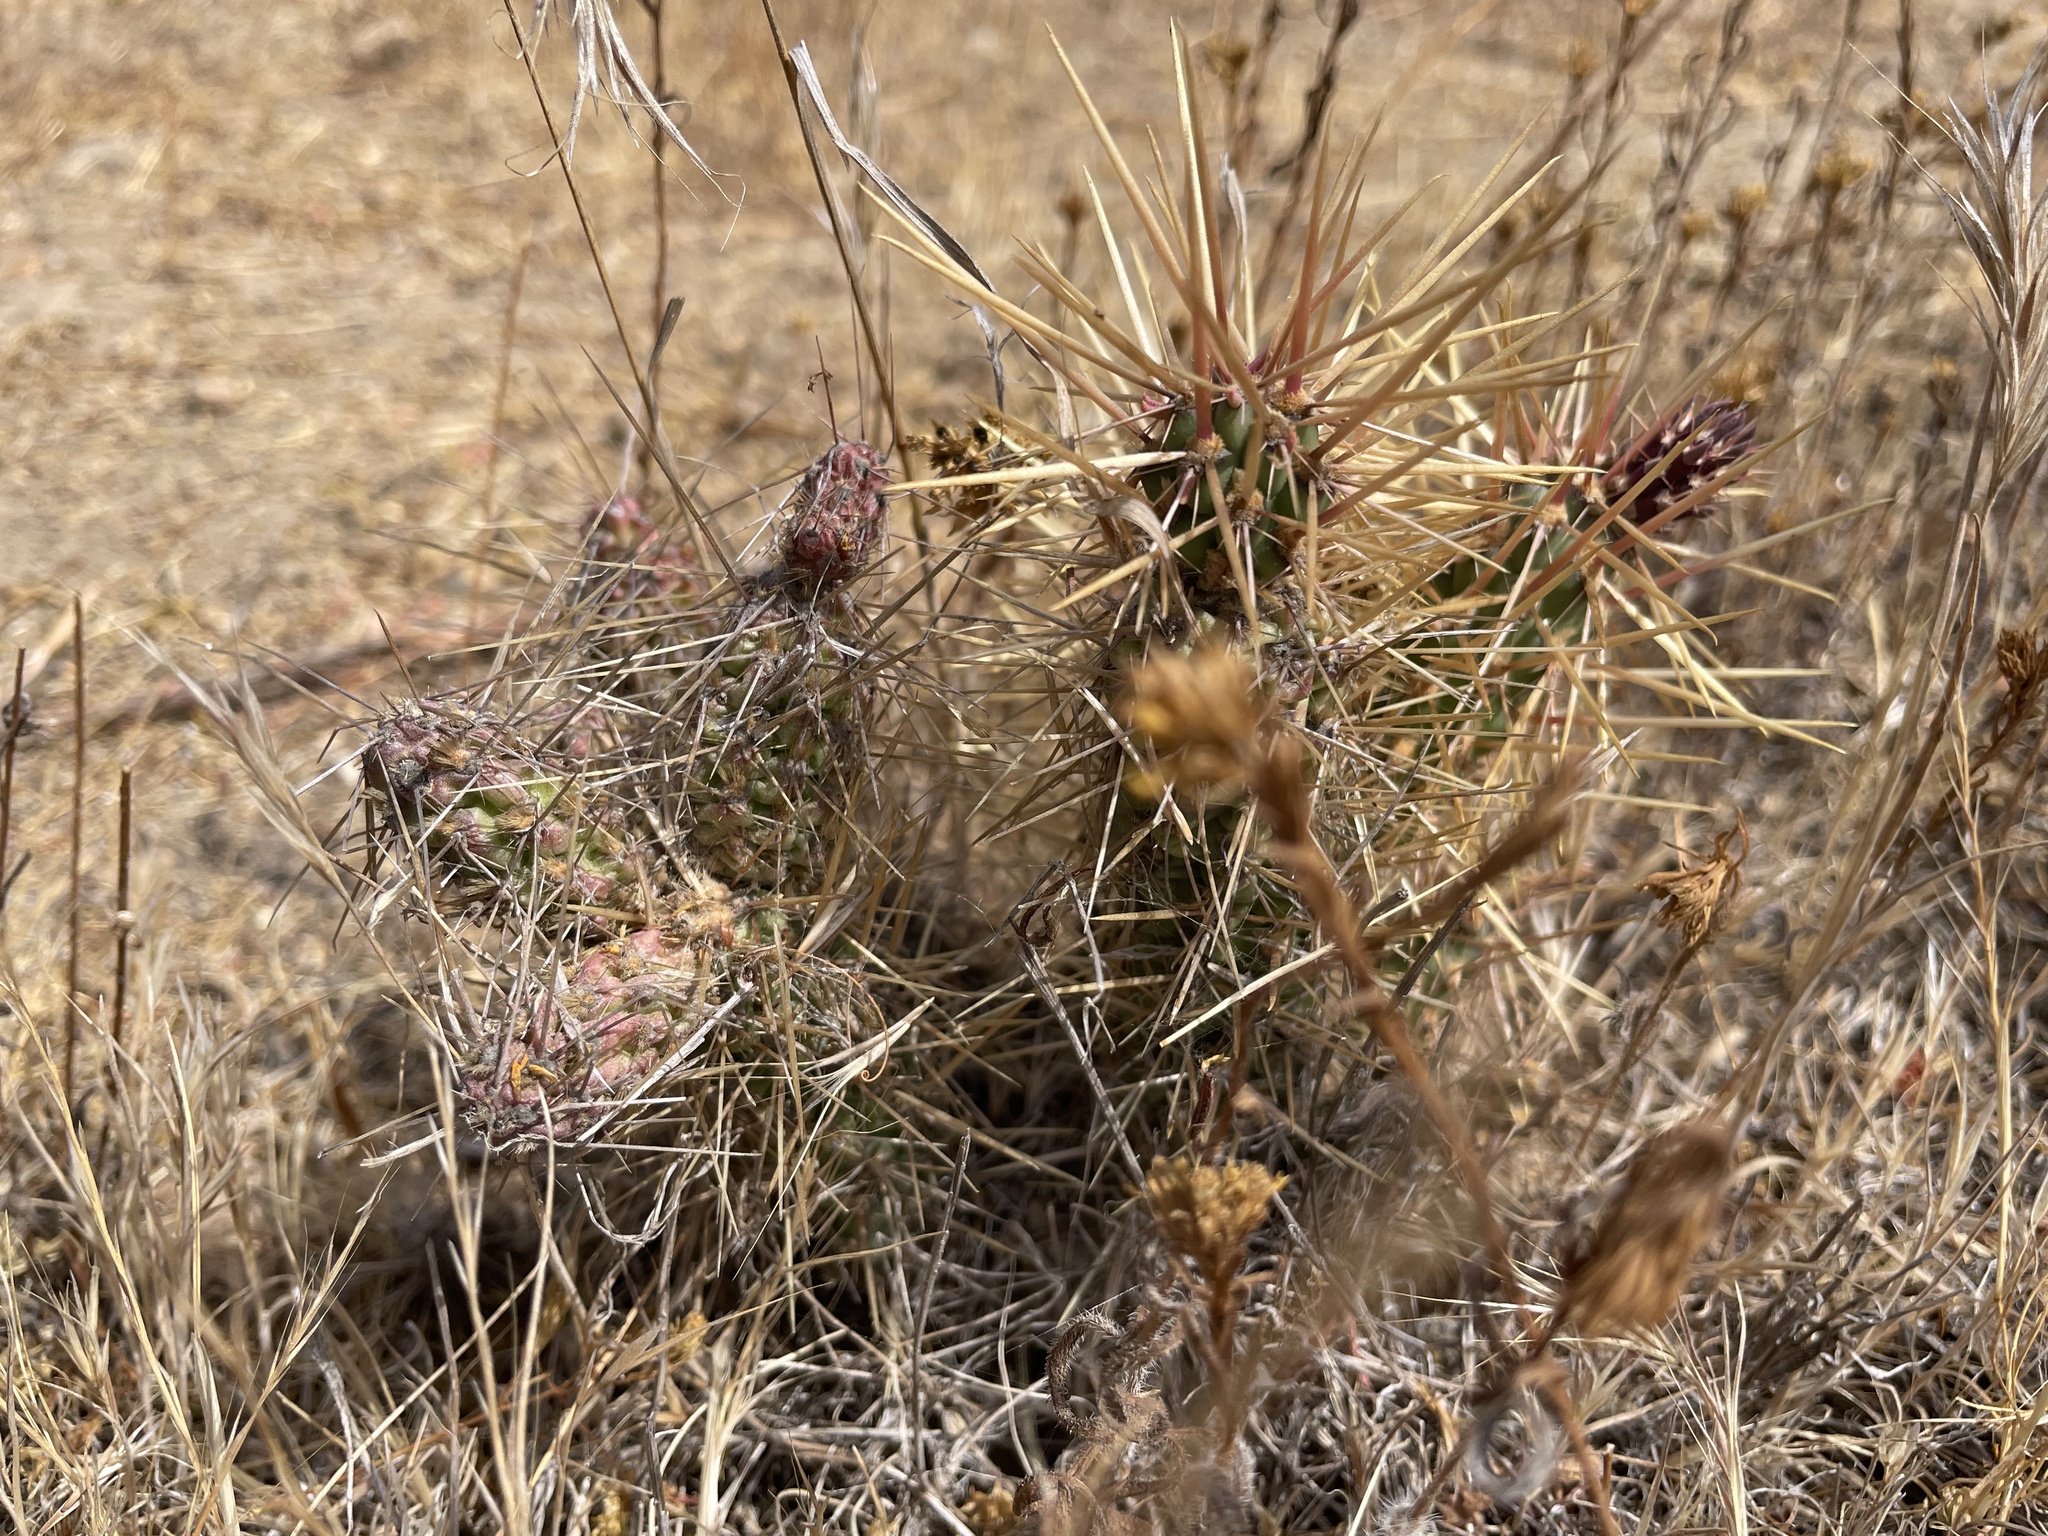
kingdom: Plantae
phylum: Tracheophyta
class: Magnoliopsida
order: Caryophyllales
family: Cactaceae
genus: Cylindropuntia
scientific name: Cylindropuntia prolifera
